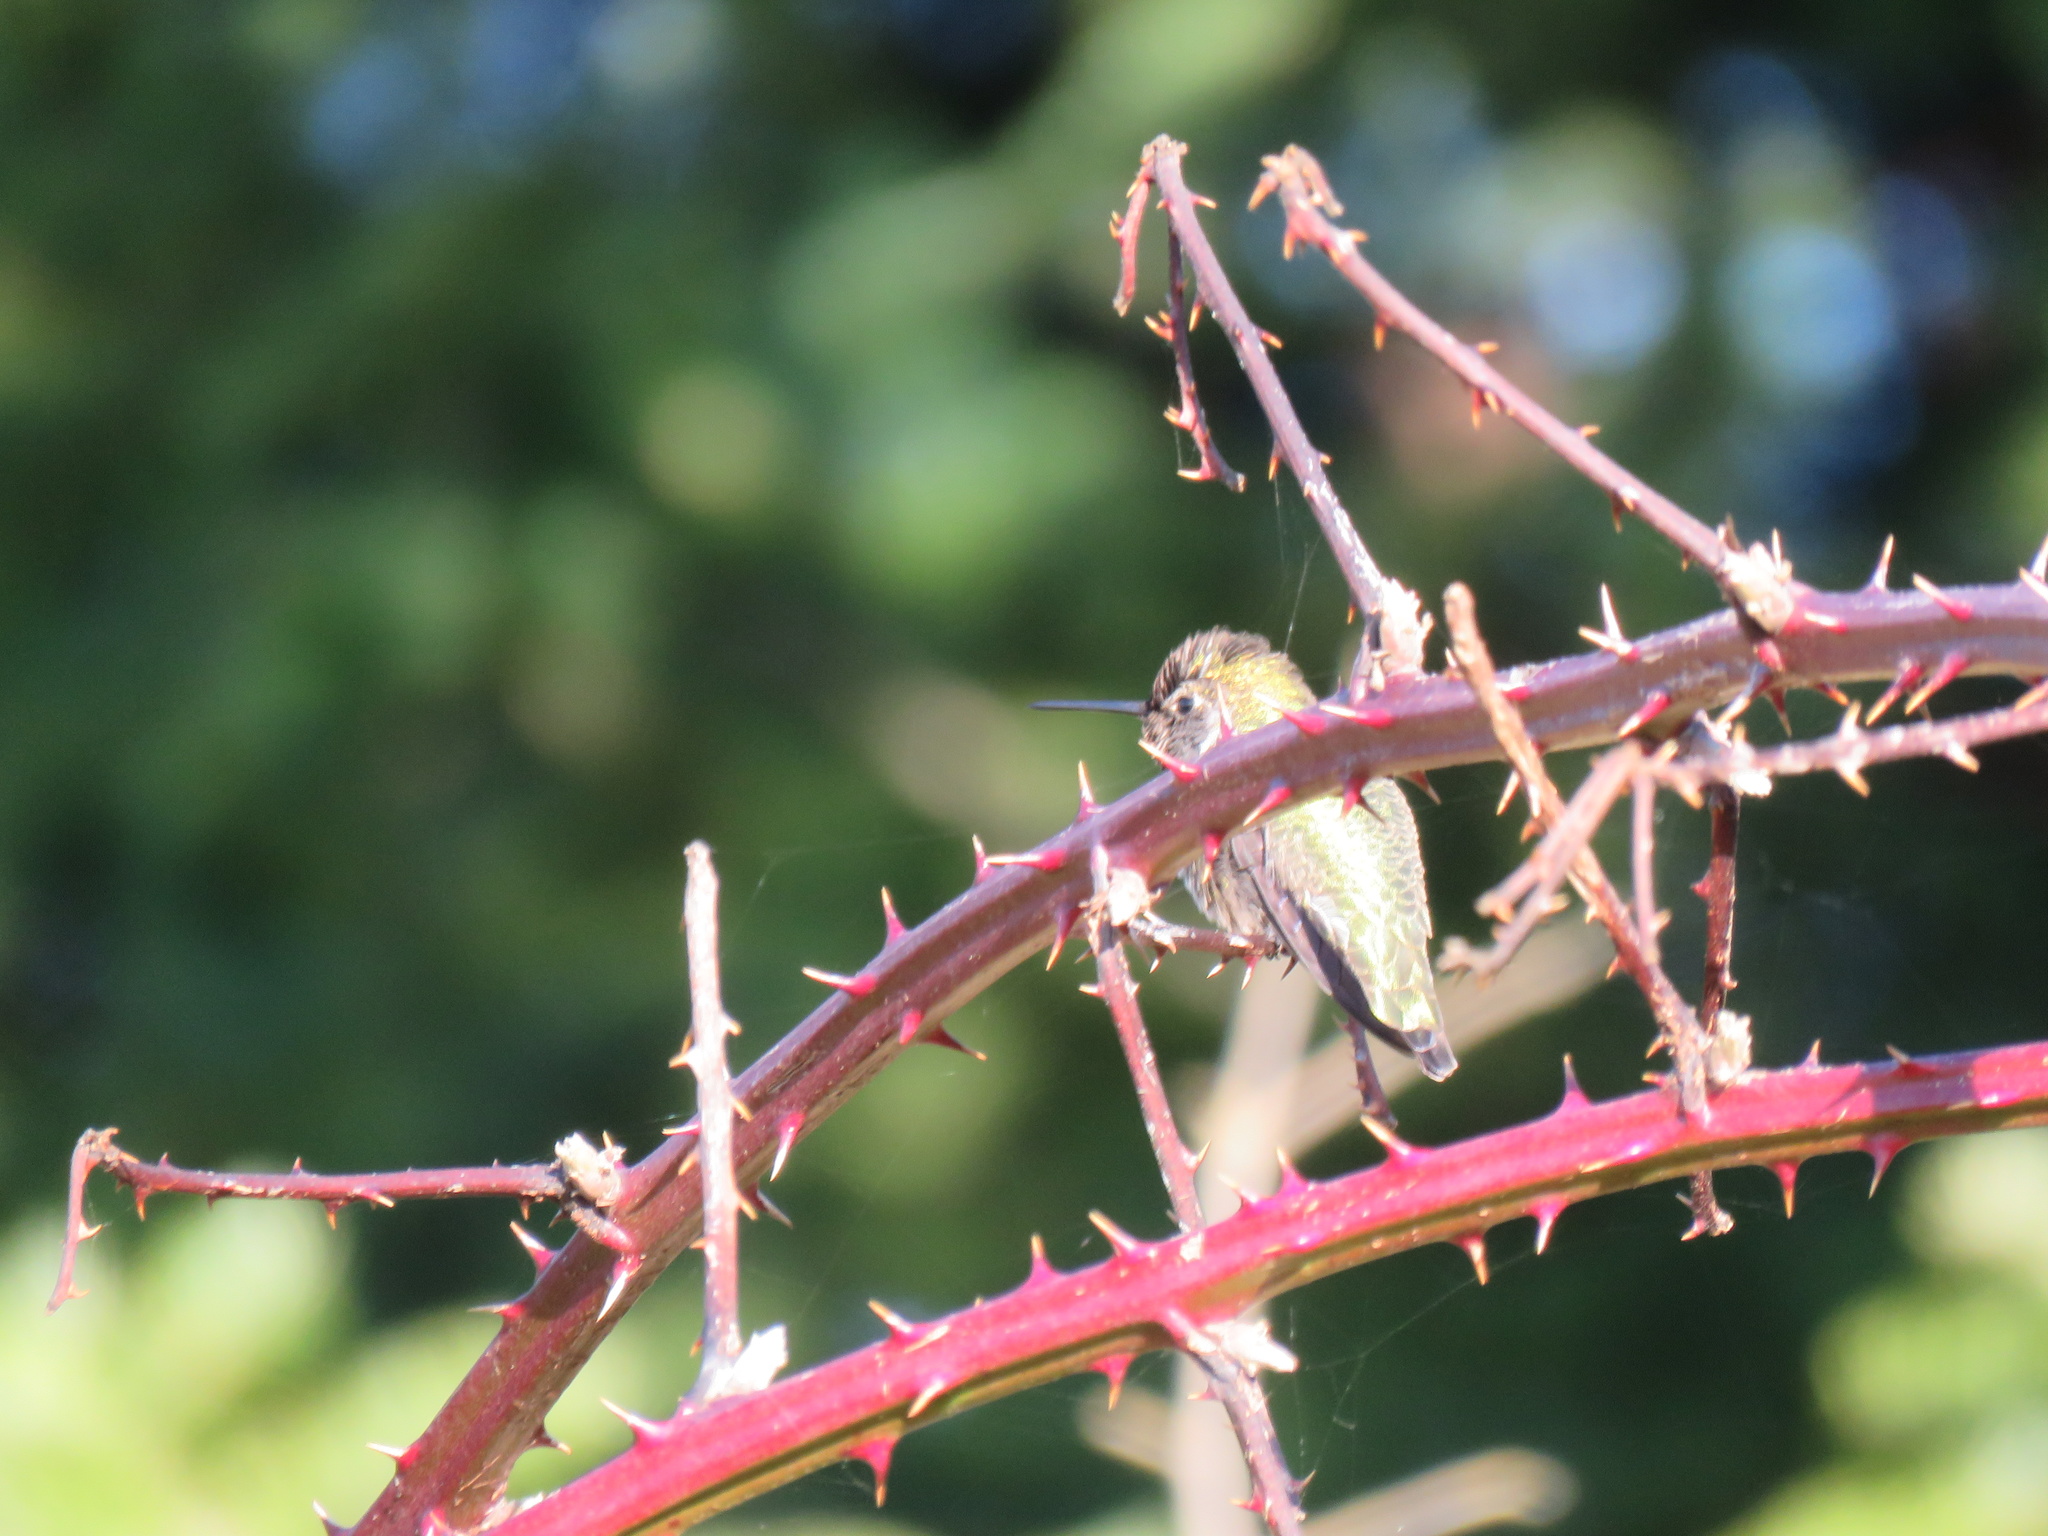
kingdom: Animalia
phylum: Chordata
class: Aves
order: Apodiformes
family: Trochilidae
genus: Calypte
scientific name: Calypte anna
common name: Anna's hummingbird
